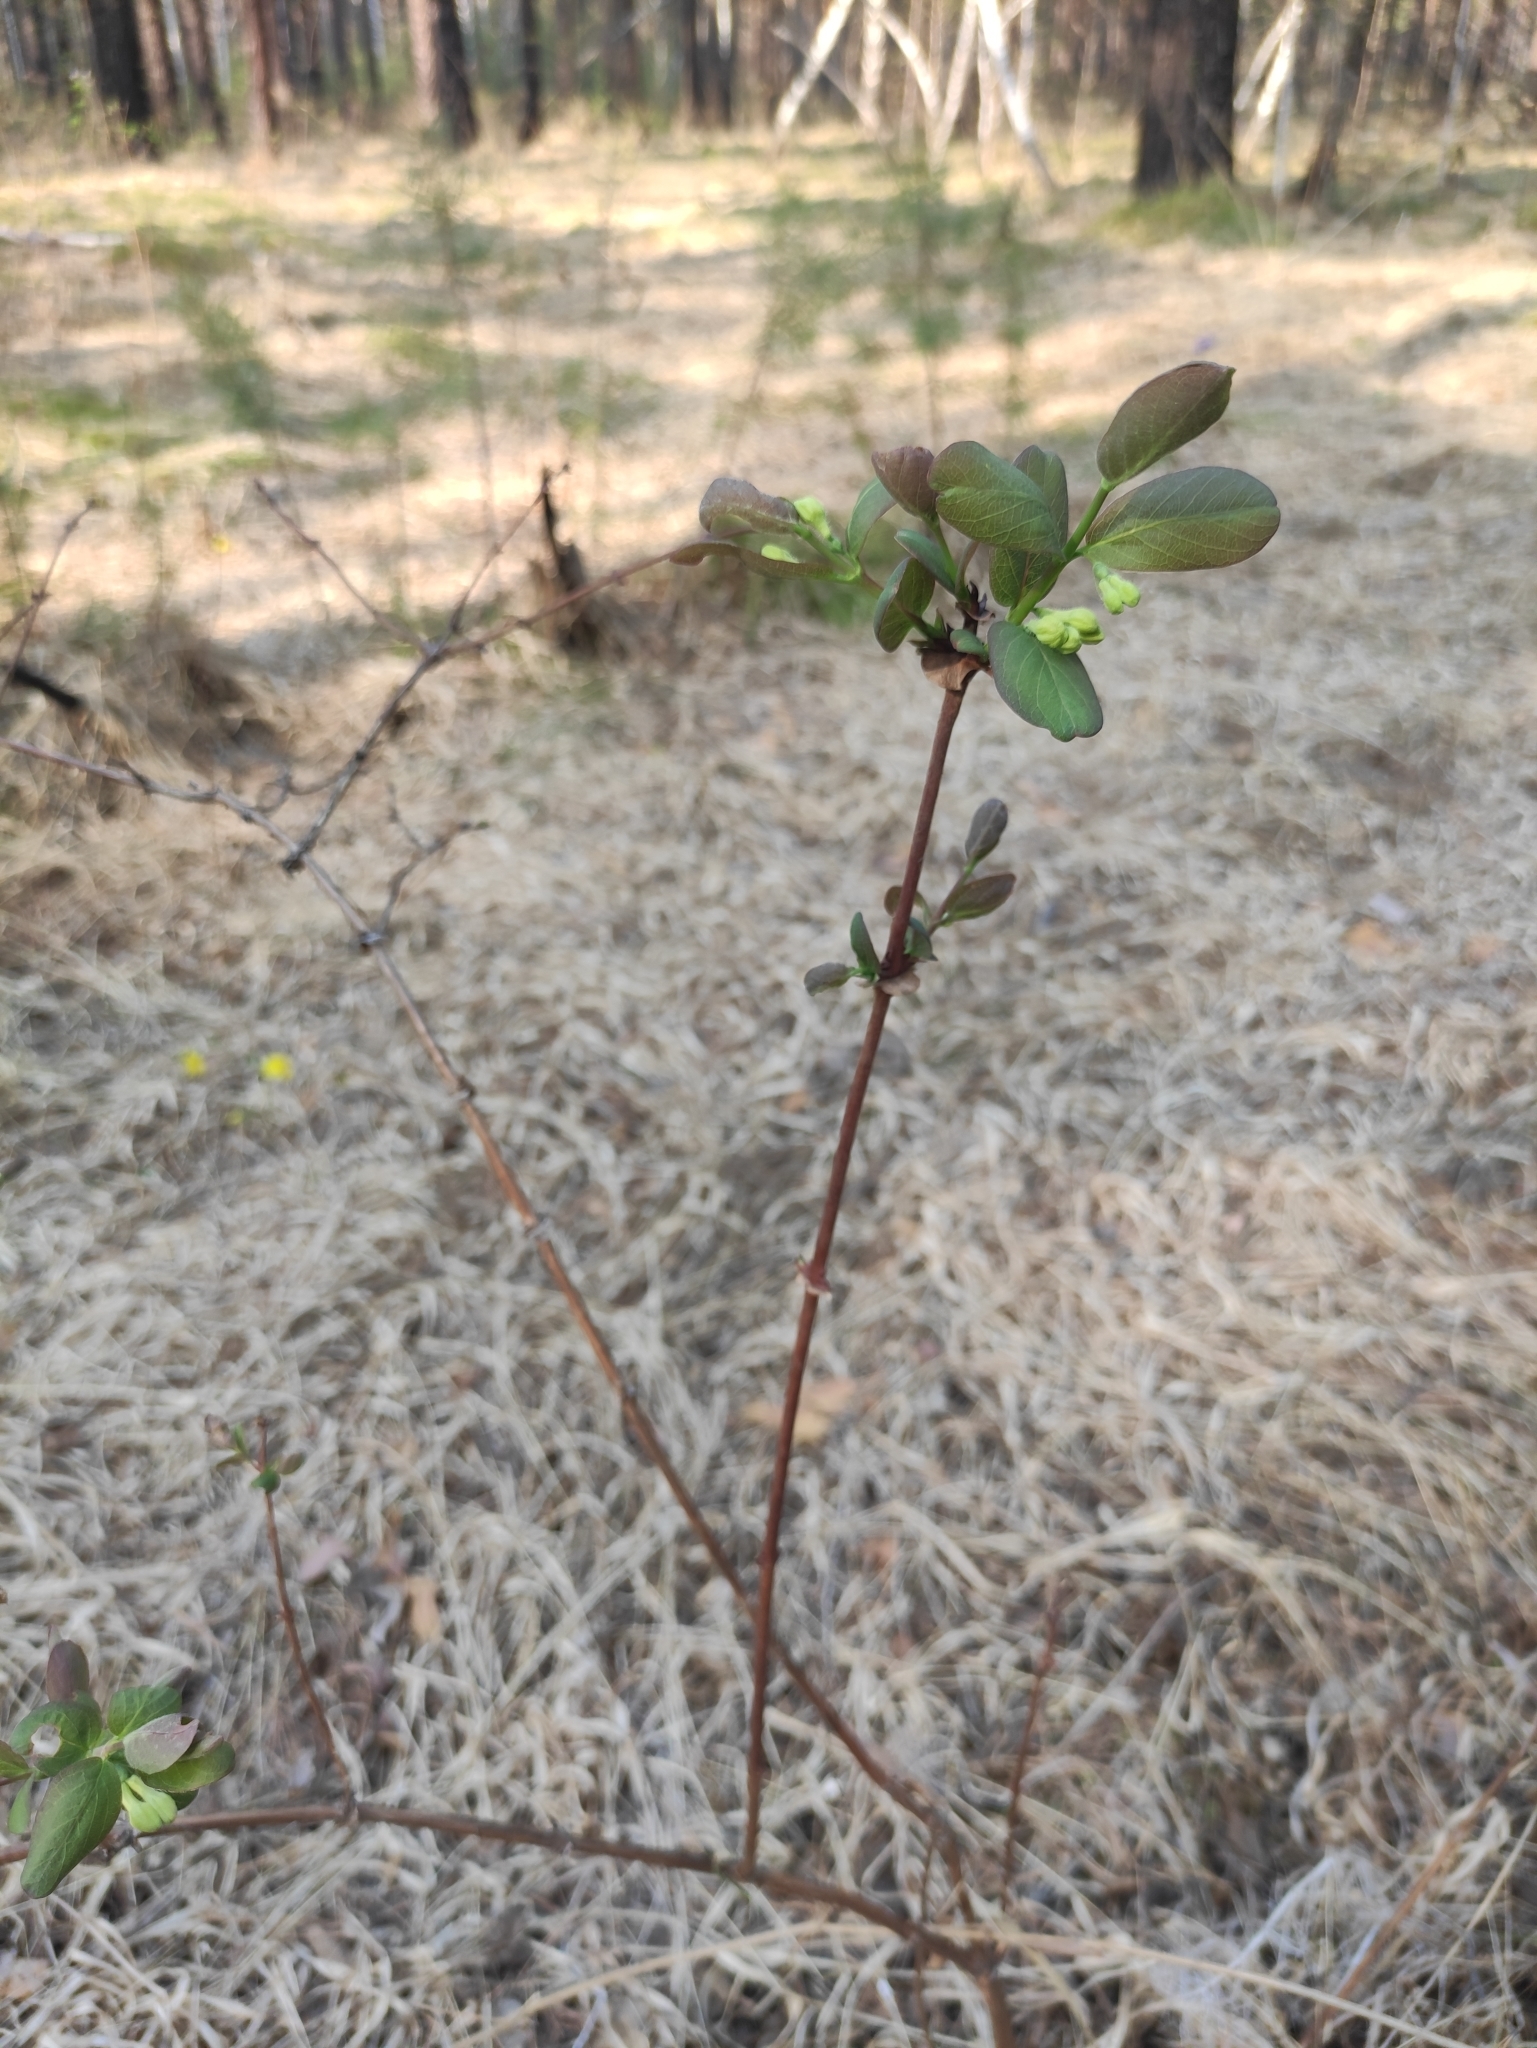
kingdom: Plantae
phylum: Tracheophyta
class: Magnoliopsida
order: Dipsacales
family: Caprifoliaceae
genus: Lonicera
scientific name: Lonicera caerulea
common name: Blue honeysuckle
